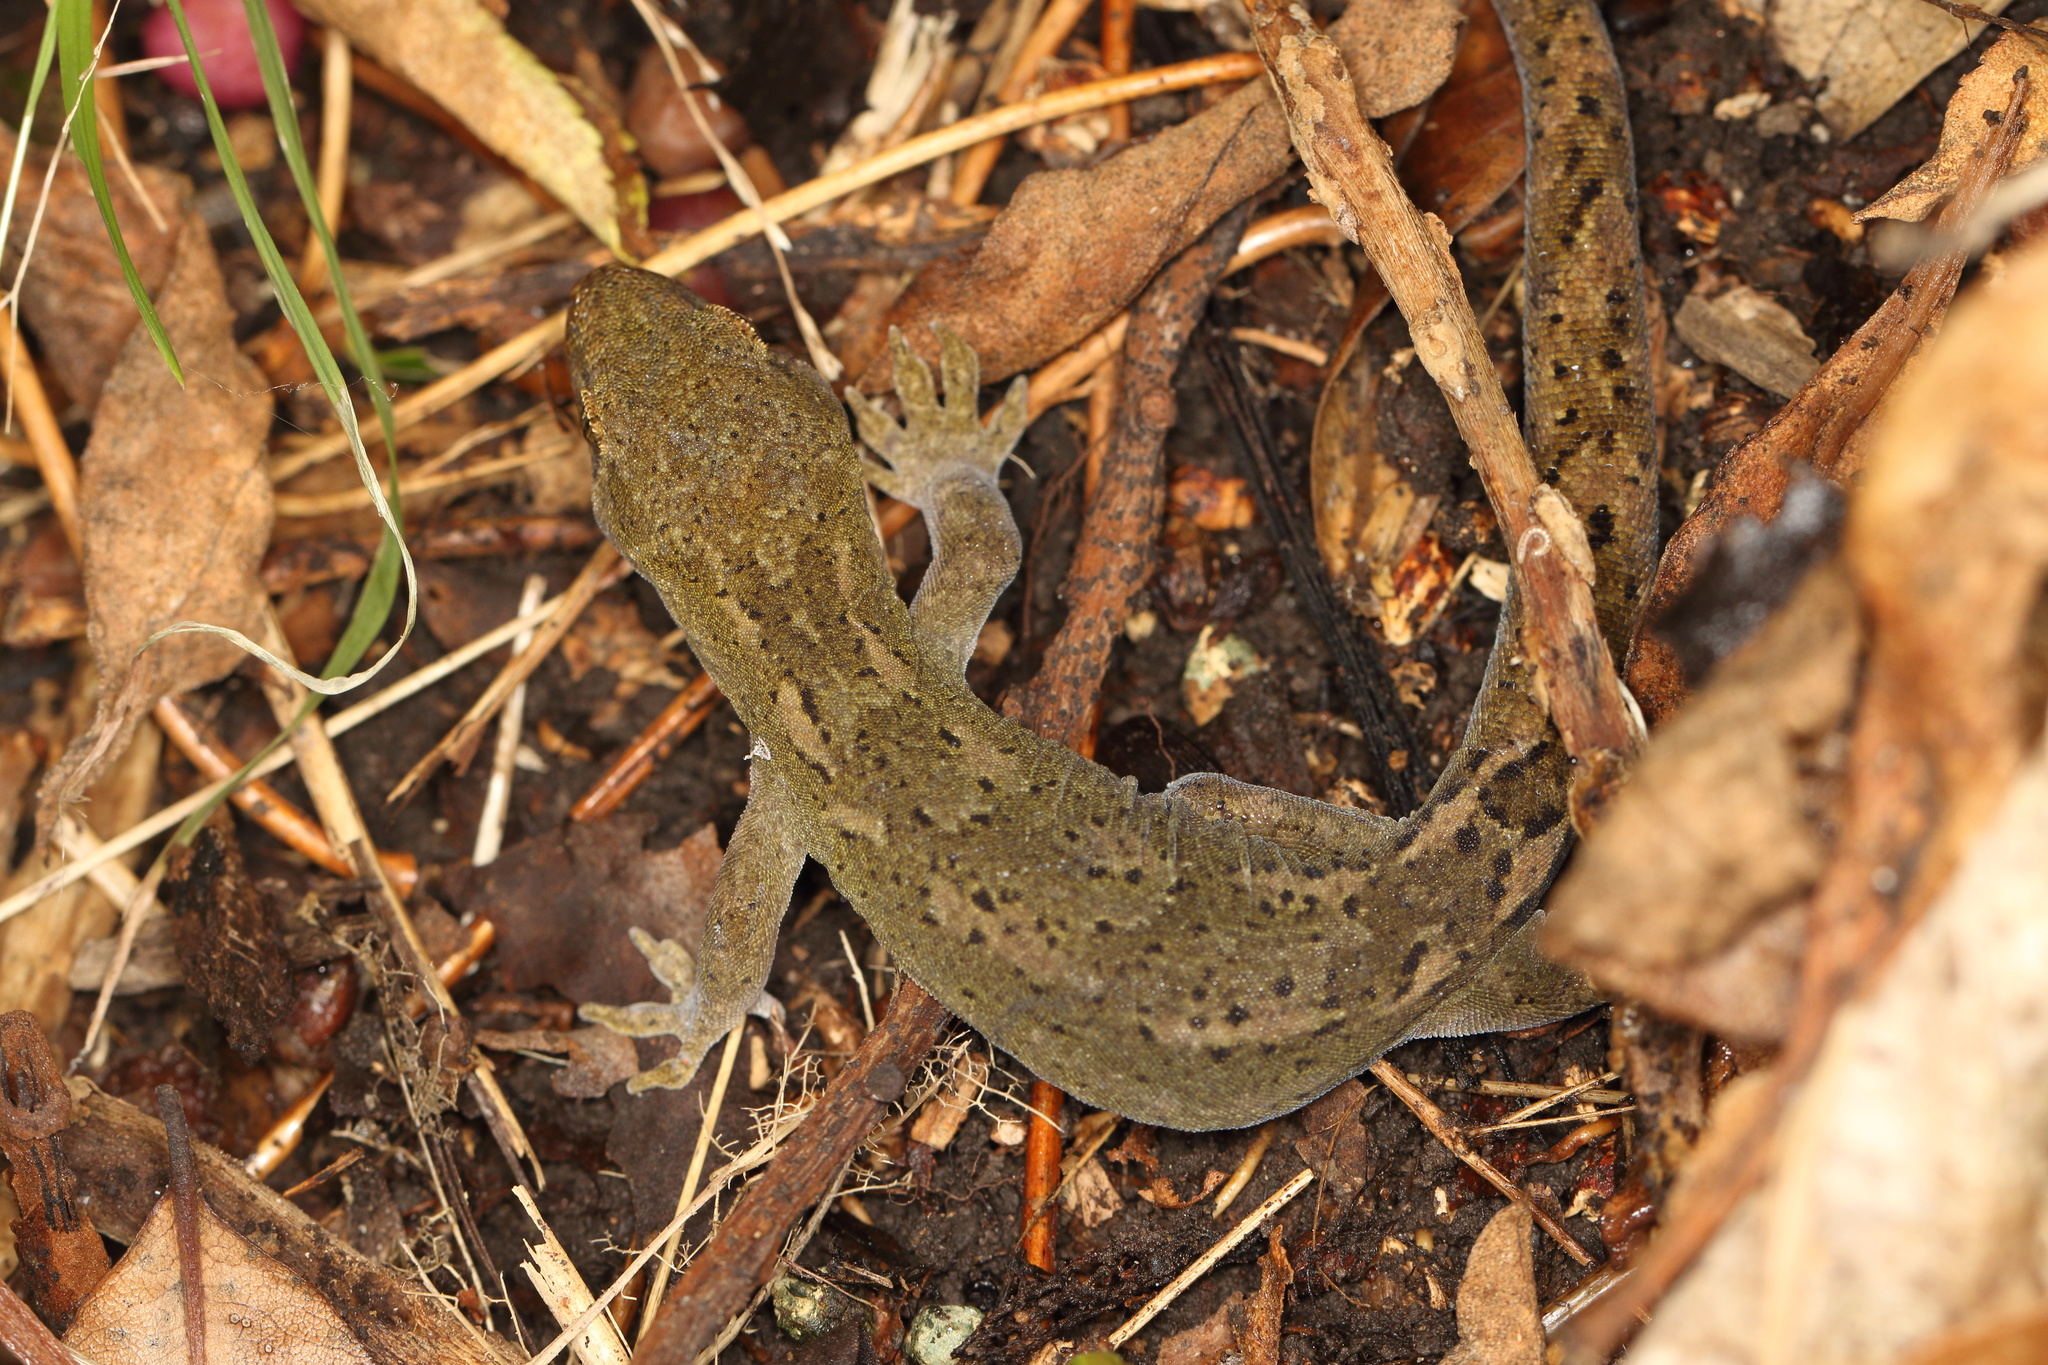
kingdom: Animalia
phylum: Chordata
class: Squamata
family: Diplodactylidae
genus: Woodworthia
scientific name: Woodworthia maculata
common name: Raukawa gecko
